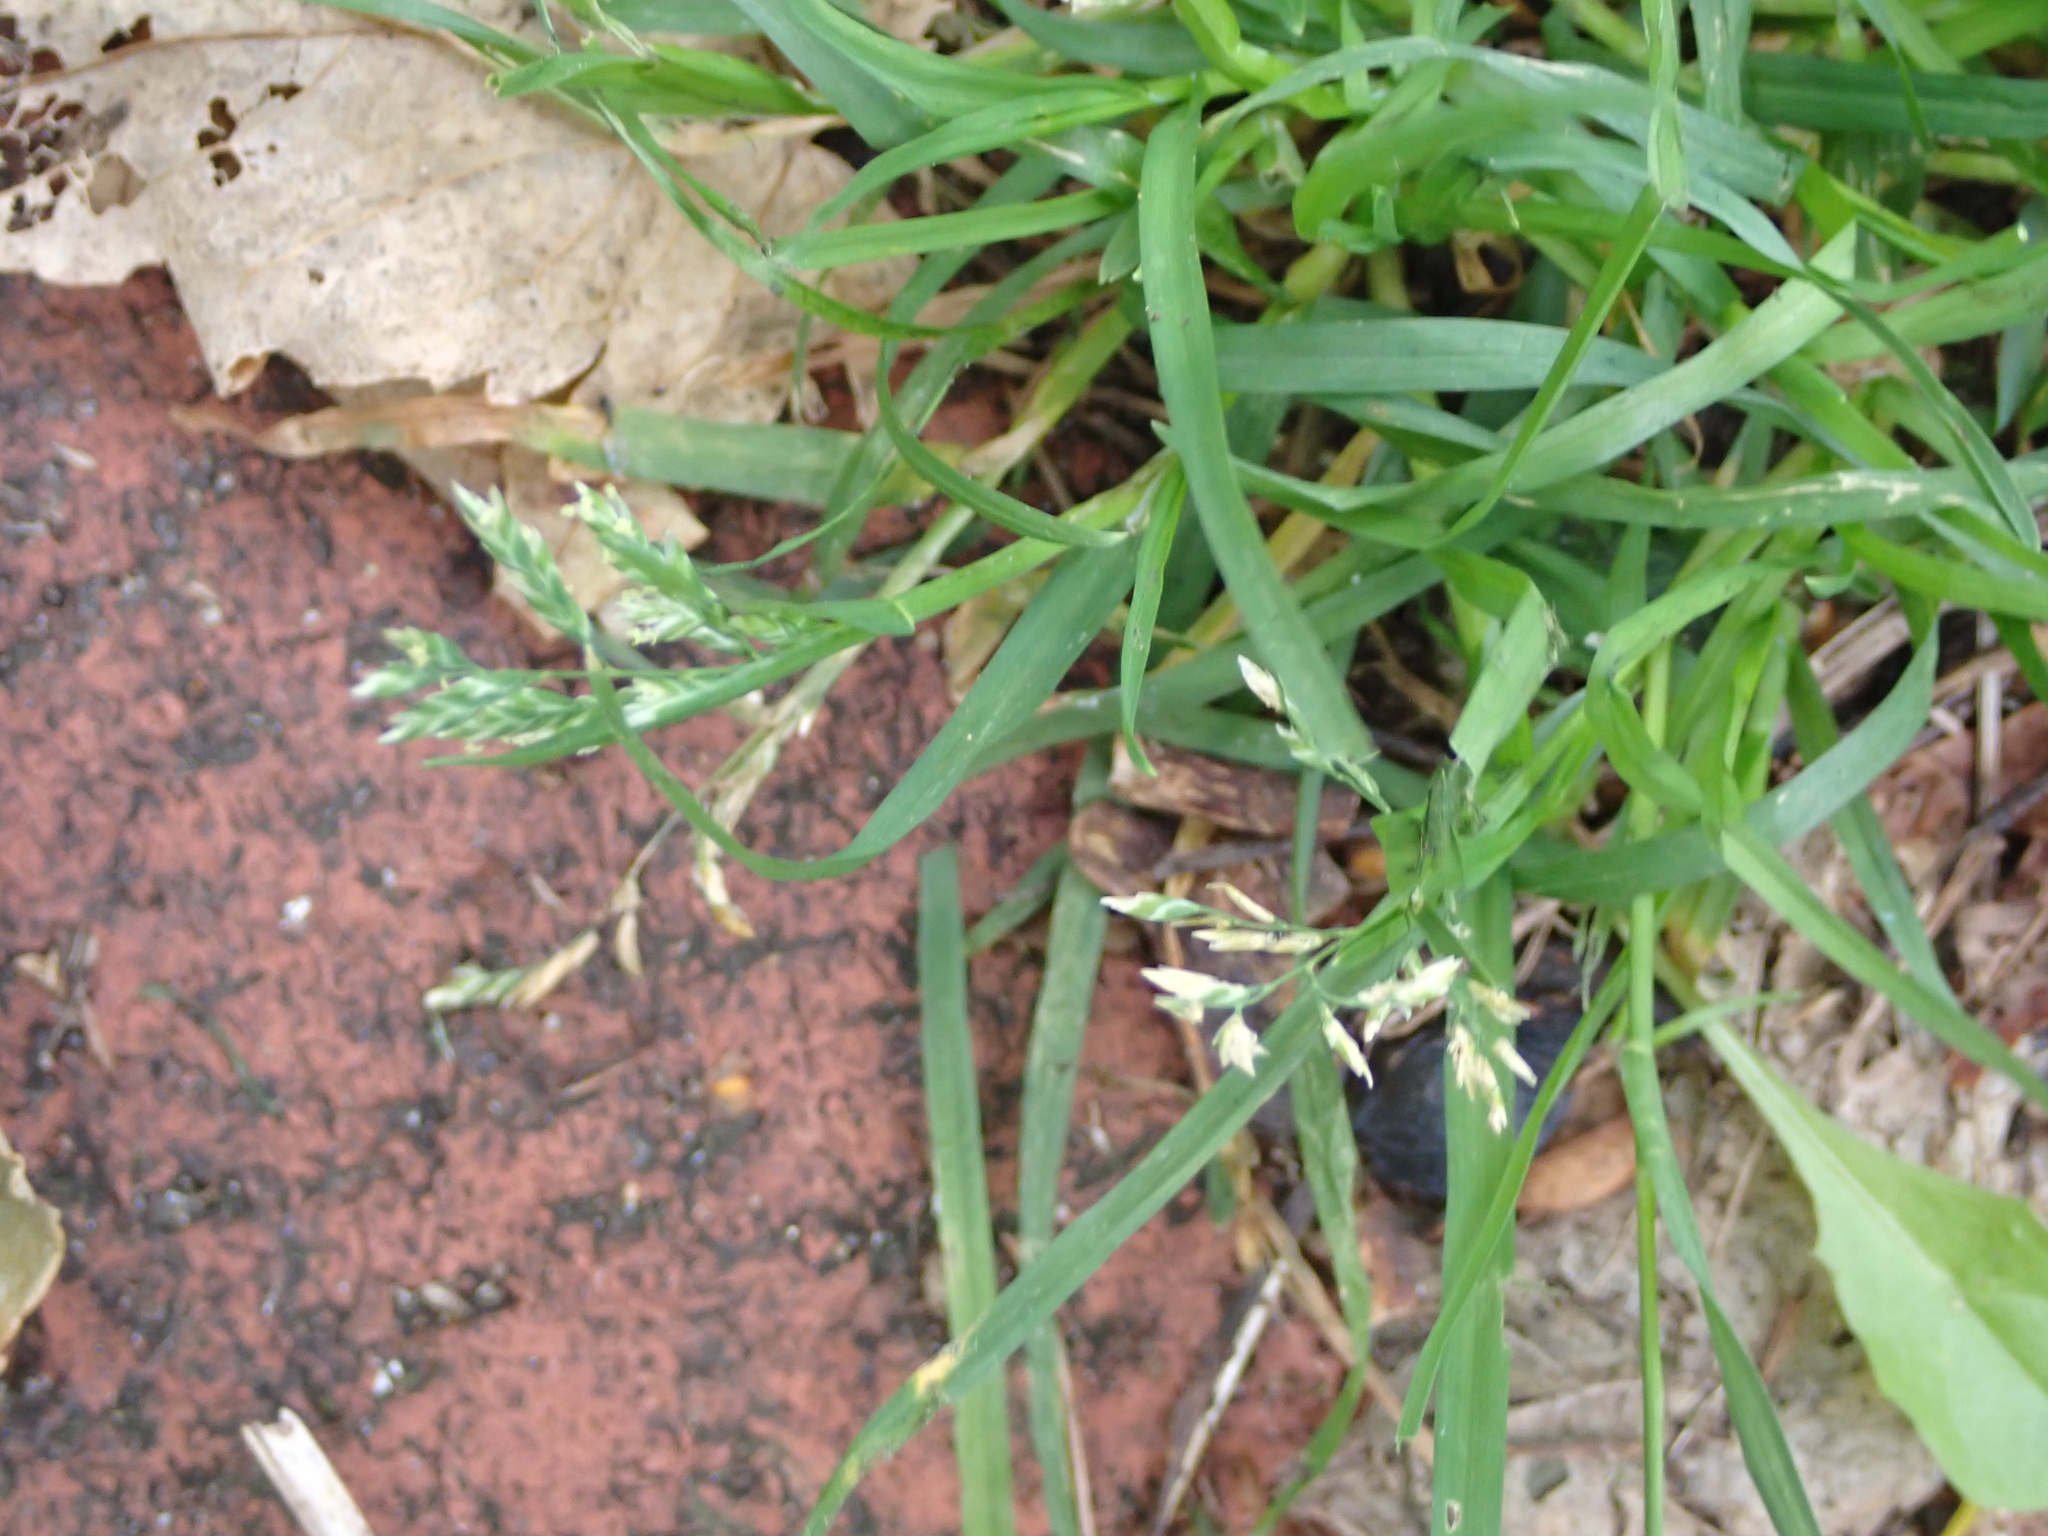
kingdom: Plantae
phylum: Tracheophyta
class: Liliopsida
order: Poales
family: Poaceae
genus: Poa
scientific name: Poa annua
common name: Annual bluegrass
